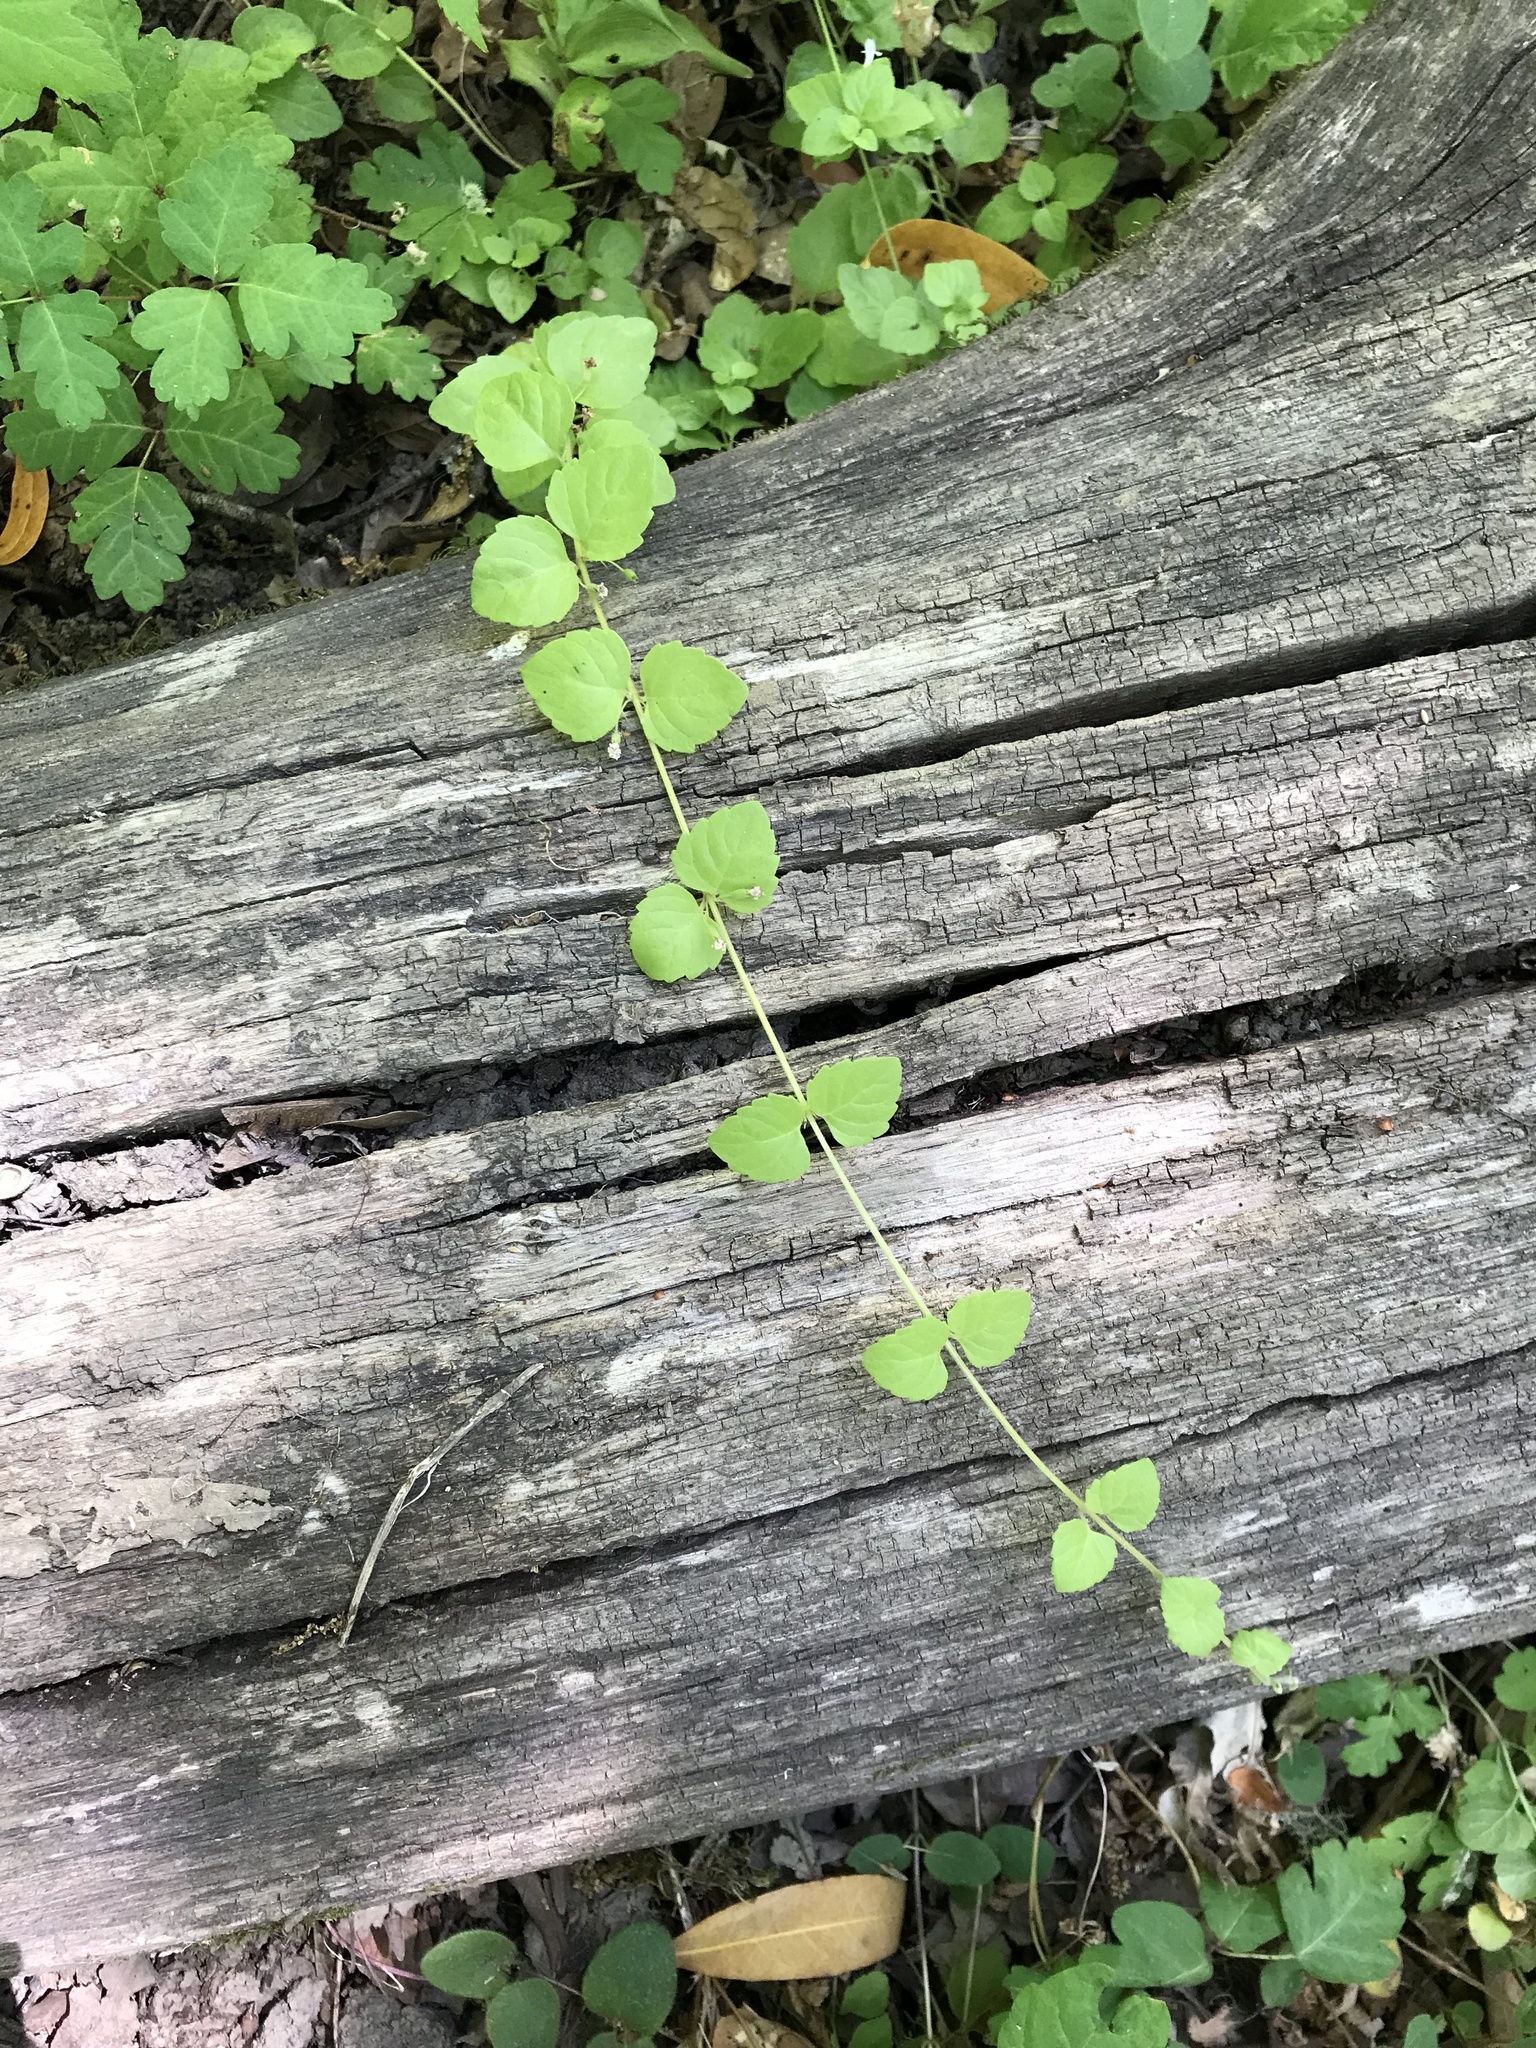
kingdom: Plantae
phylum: Tracheophyta
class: Magnoliopsida
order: Lamiales
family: Lamiaceae
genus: Micromeria
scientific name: Micromeria douglasii
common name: Yerba buena
